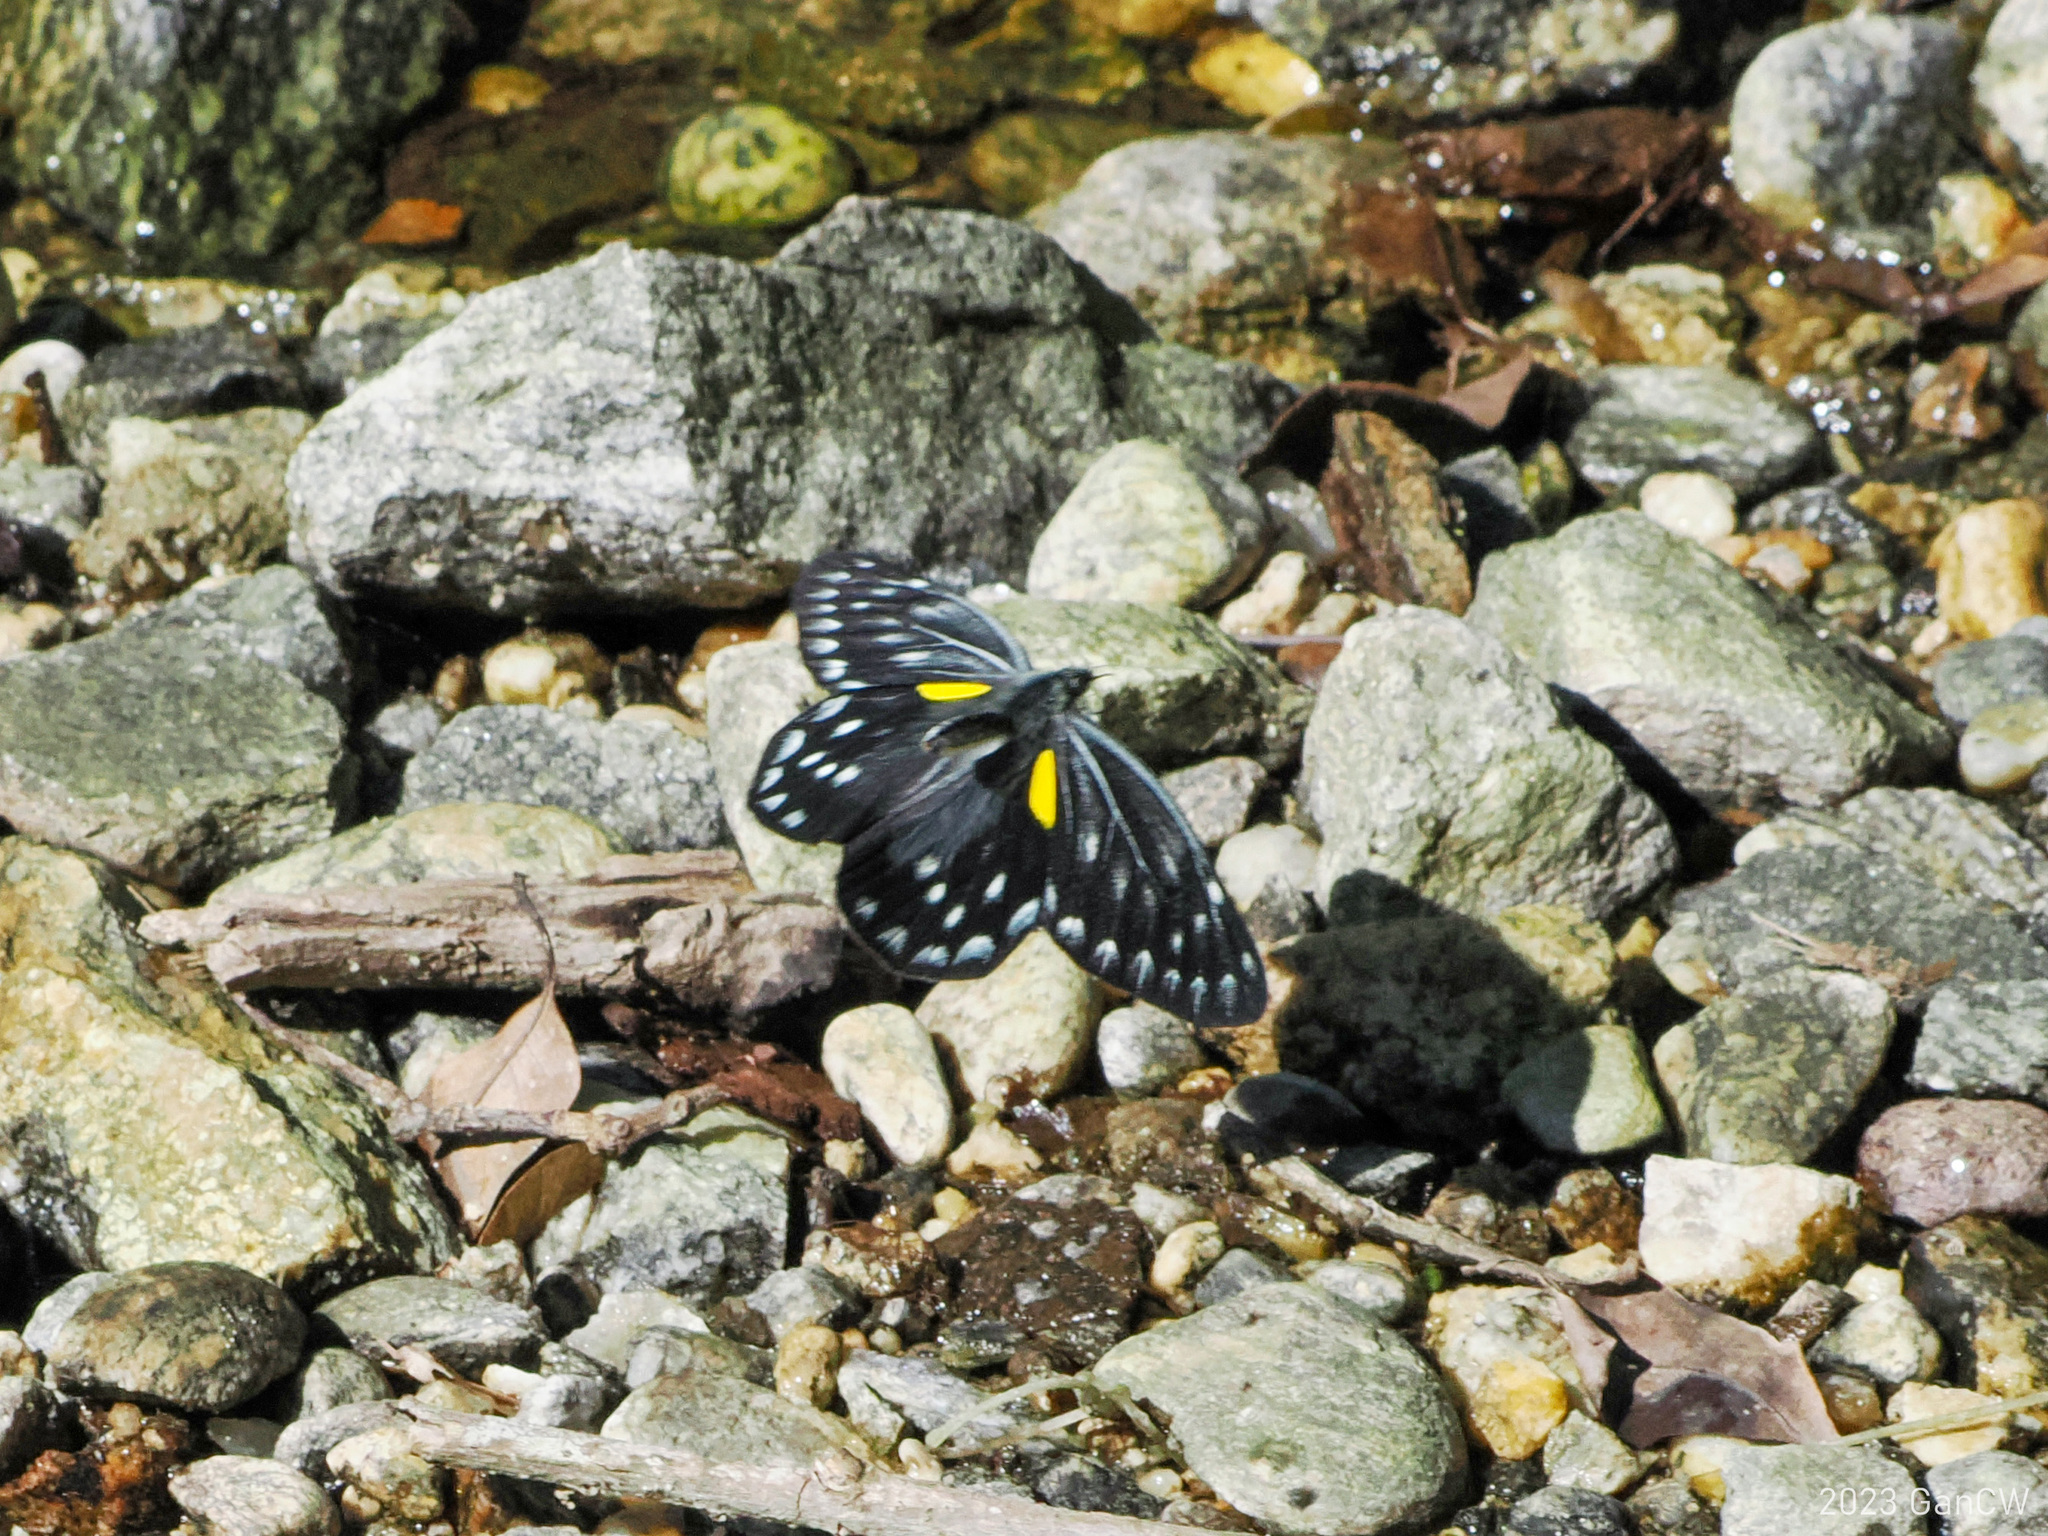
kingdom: Animalia
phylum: Arthropoda
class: Insecta
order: Lepidoptera
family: Pieridae
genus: Delias
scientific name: Delias belladonna
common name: Hill jezebel
